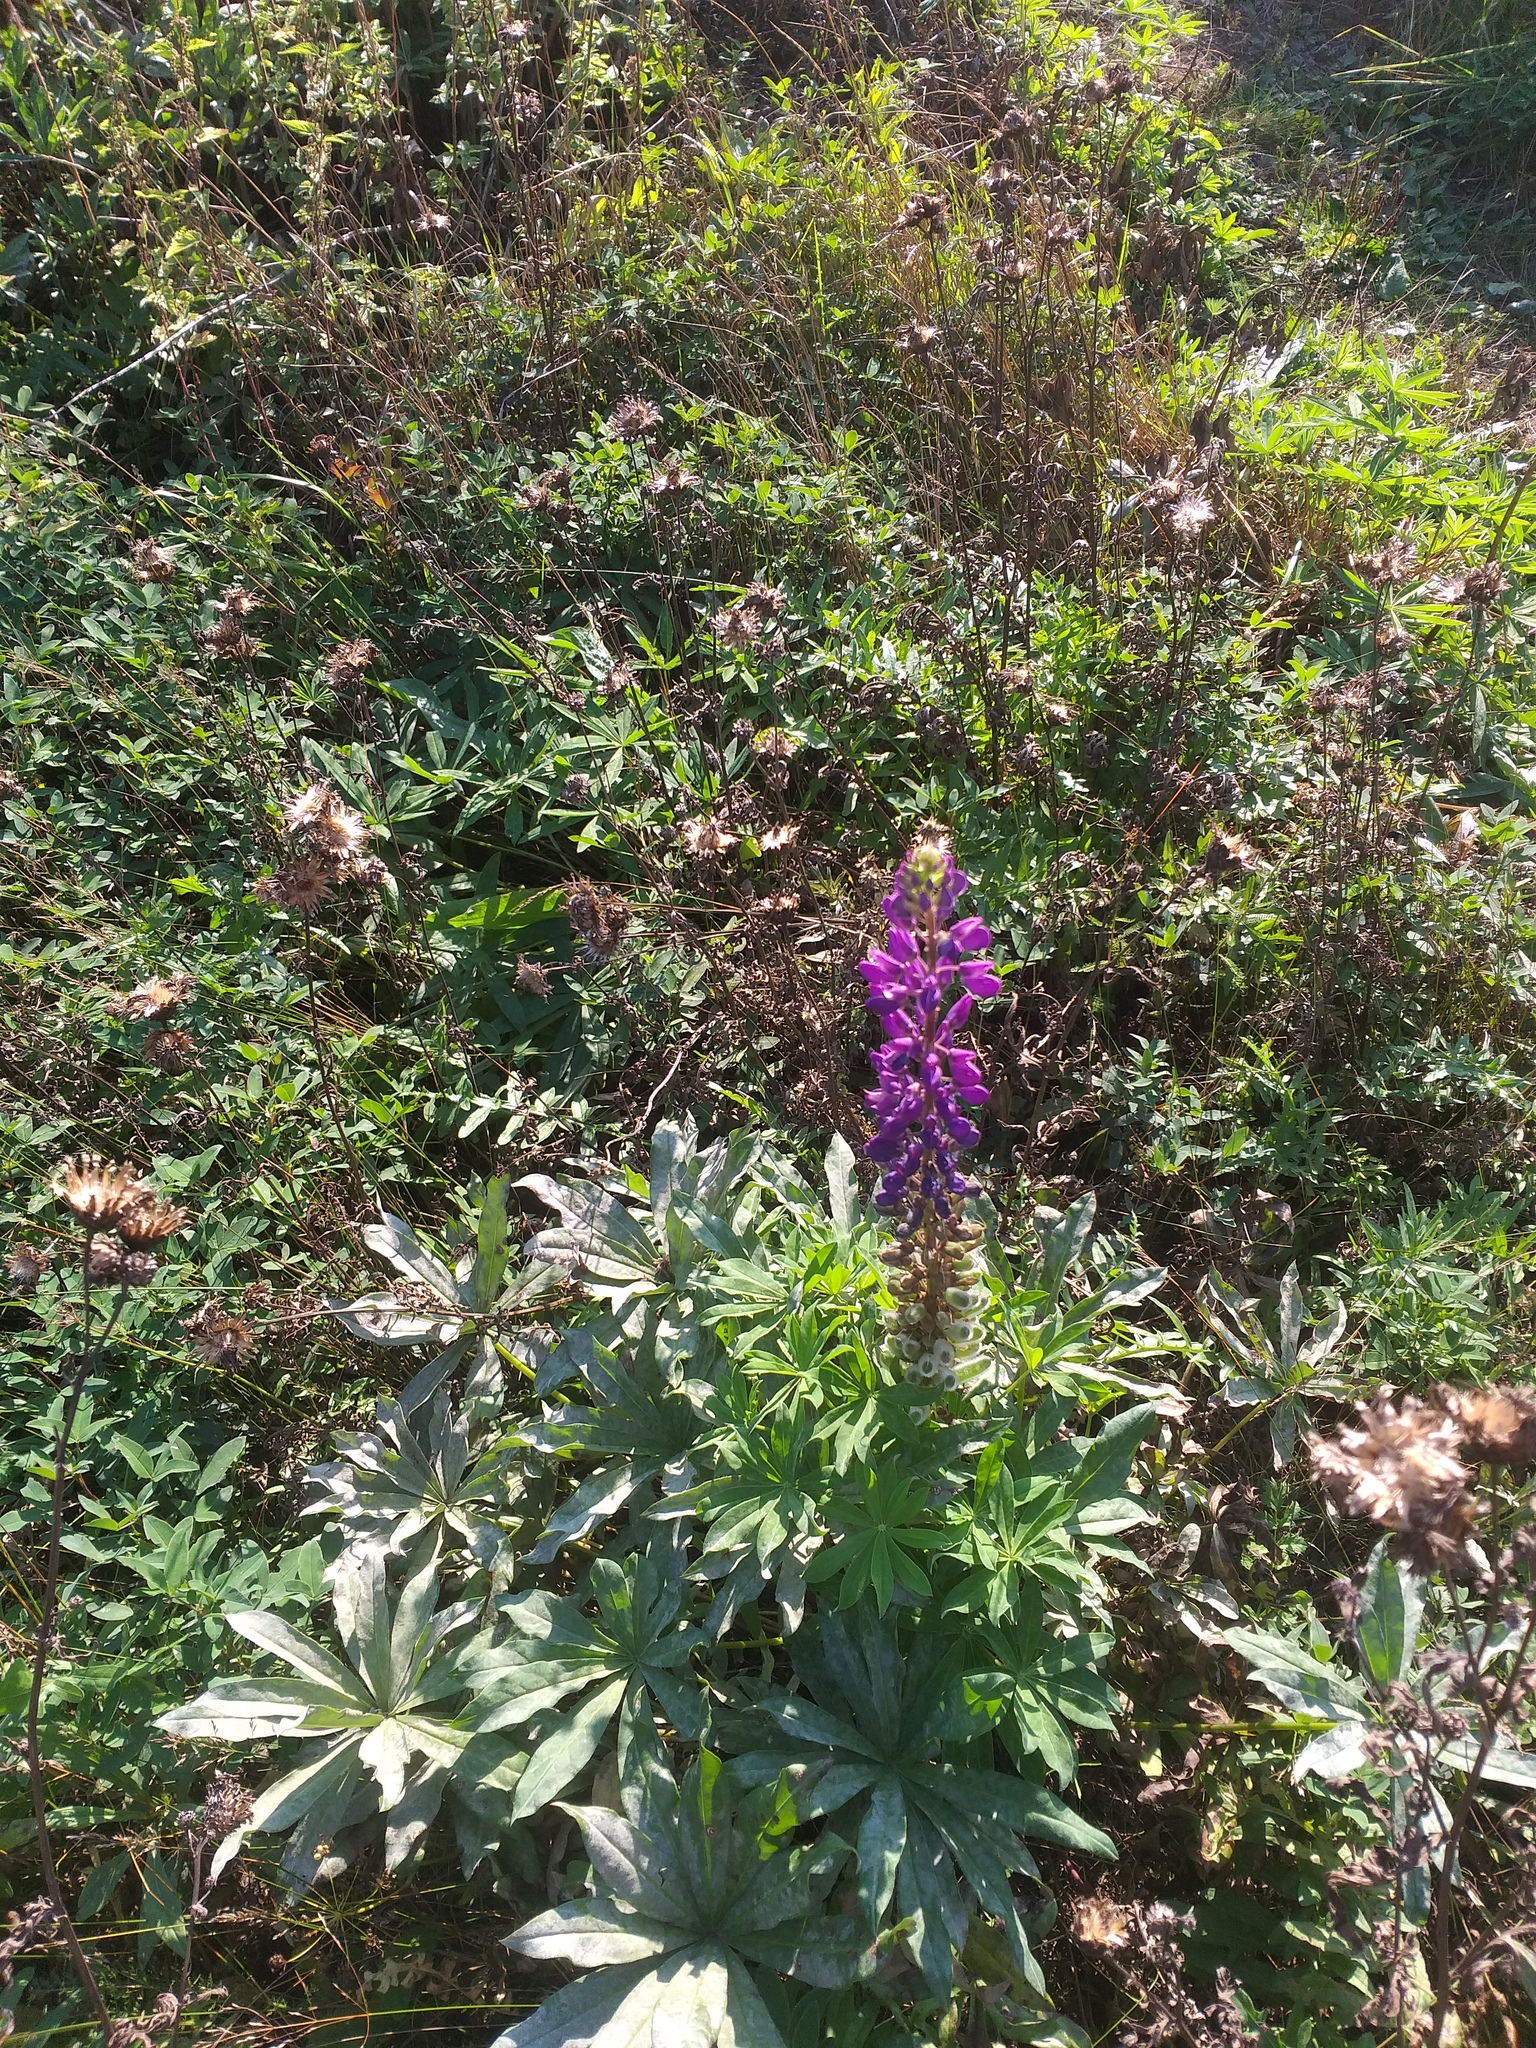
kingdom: Plantae
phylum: Tracheophyta
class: Magnoliopsida
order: Fabales
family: Fabaceae
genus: Lupinus
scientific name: Lupinus polyphyllus
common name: Garden lupin
